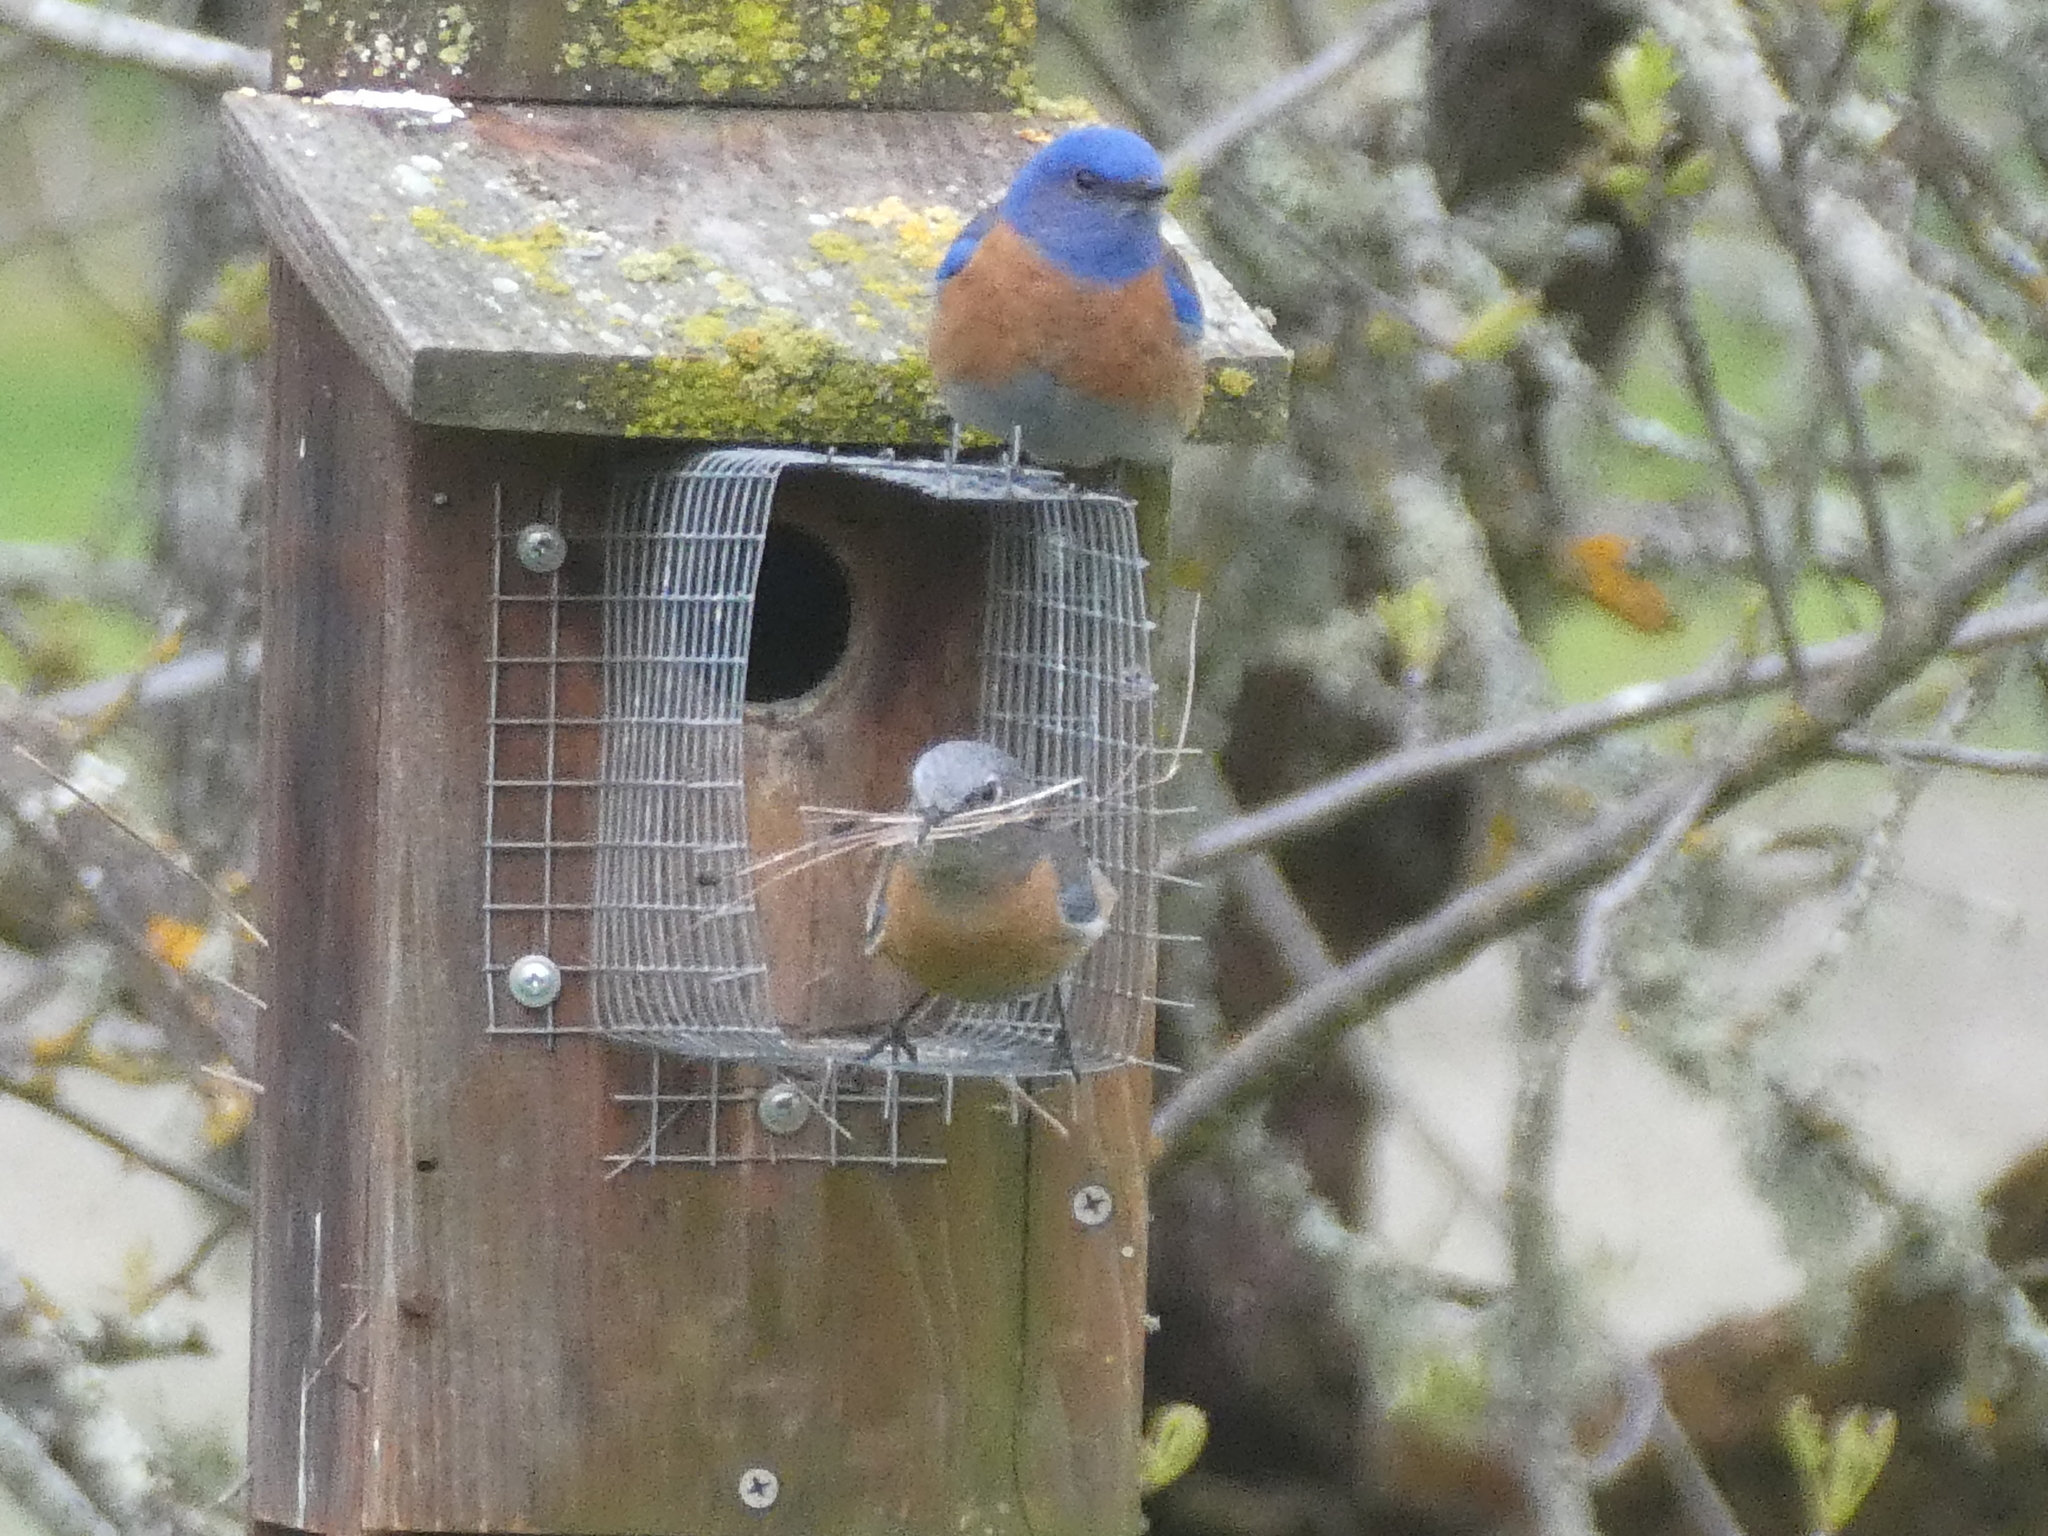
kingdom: Animalia
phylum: Chordata
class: Aves
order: Passeriformes
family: Turdidae
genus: Sialia
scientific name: Sialia mexicana
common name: Western bluebird
